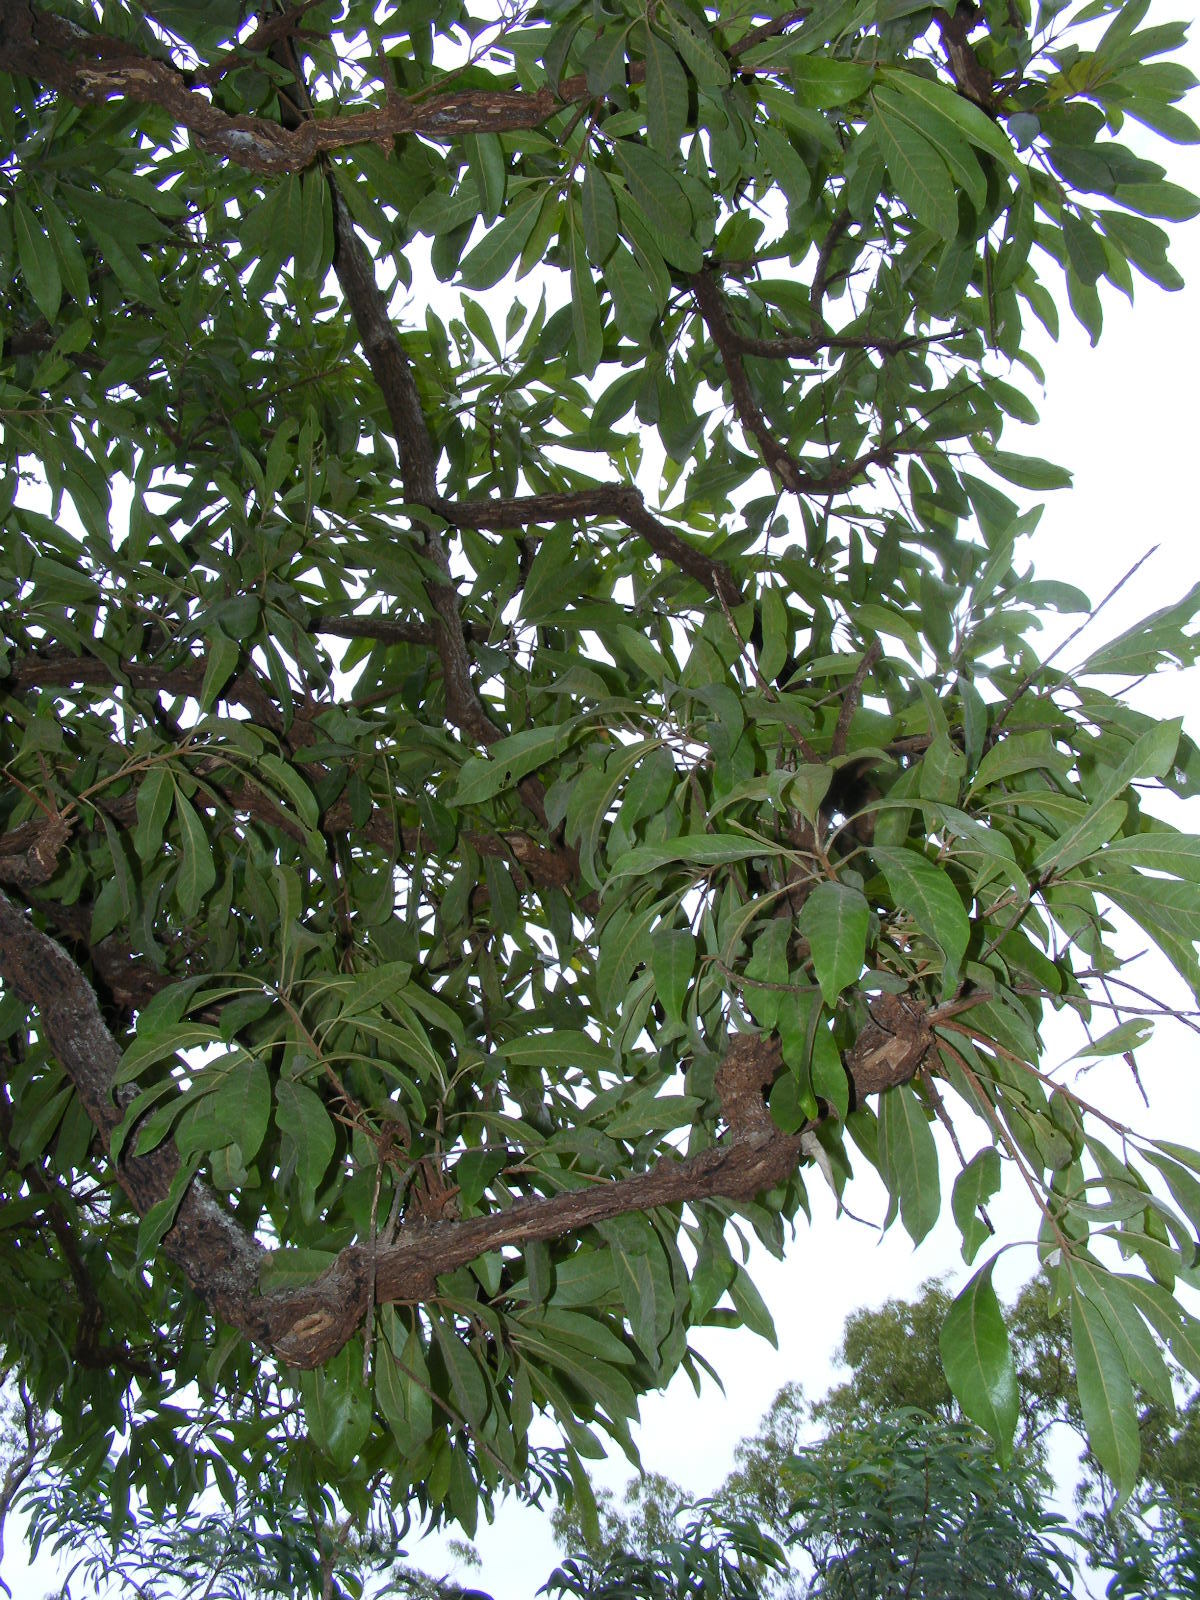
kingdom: Plantae
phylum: Tracheophyta
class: Magnoliopsida
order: Ericales
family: Sapotaceae
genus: Planchonella
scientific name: Planchonella pohlmaniana
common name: Yellow boxwood
